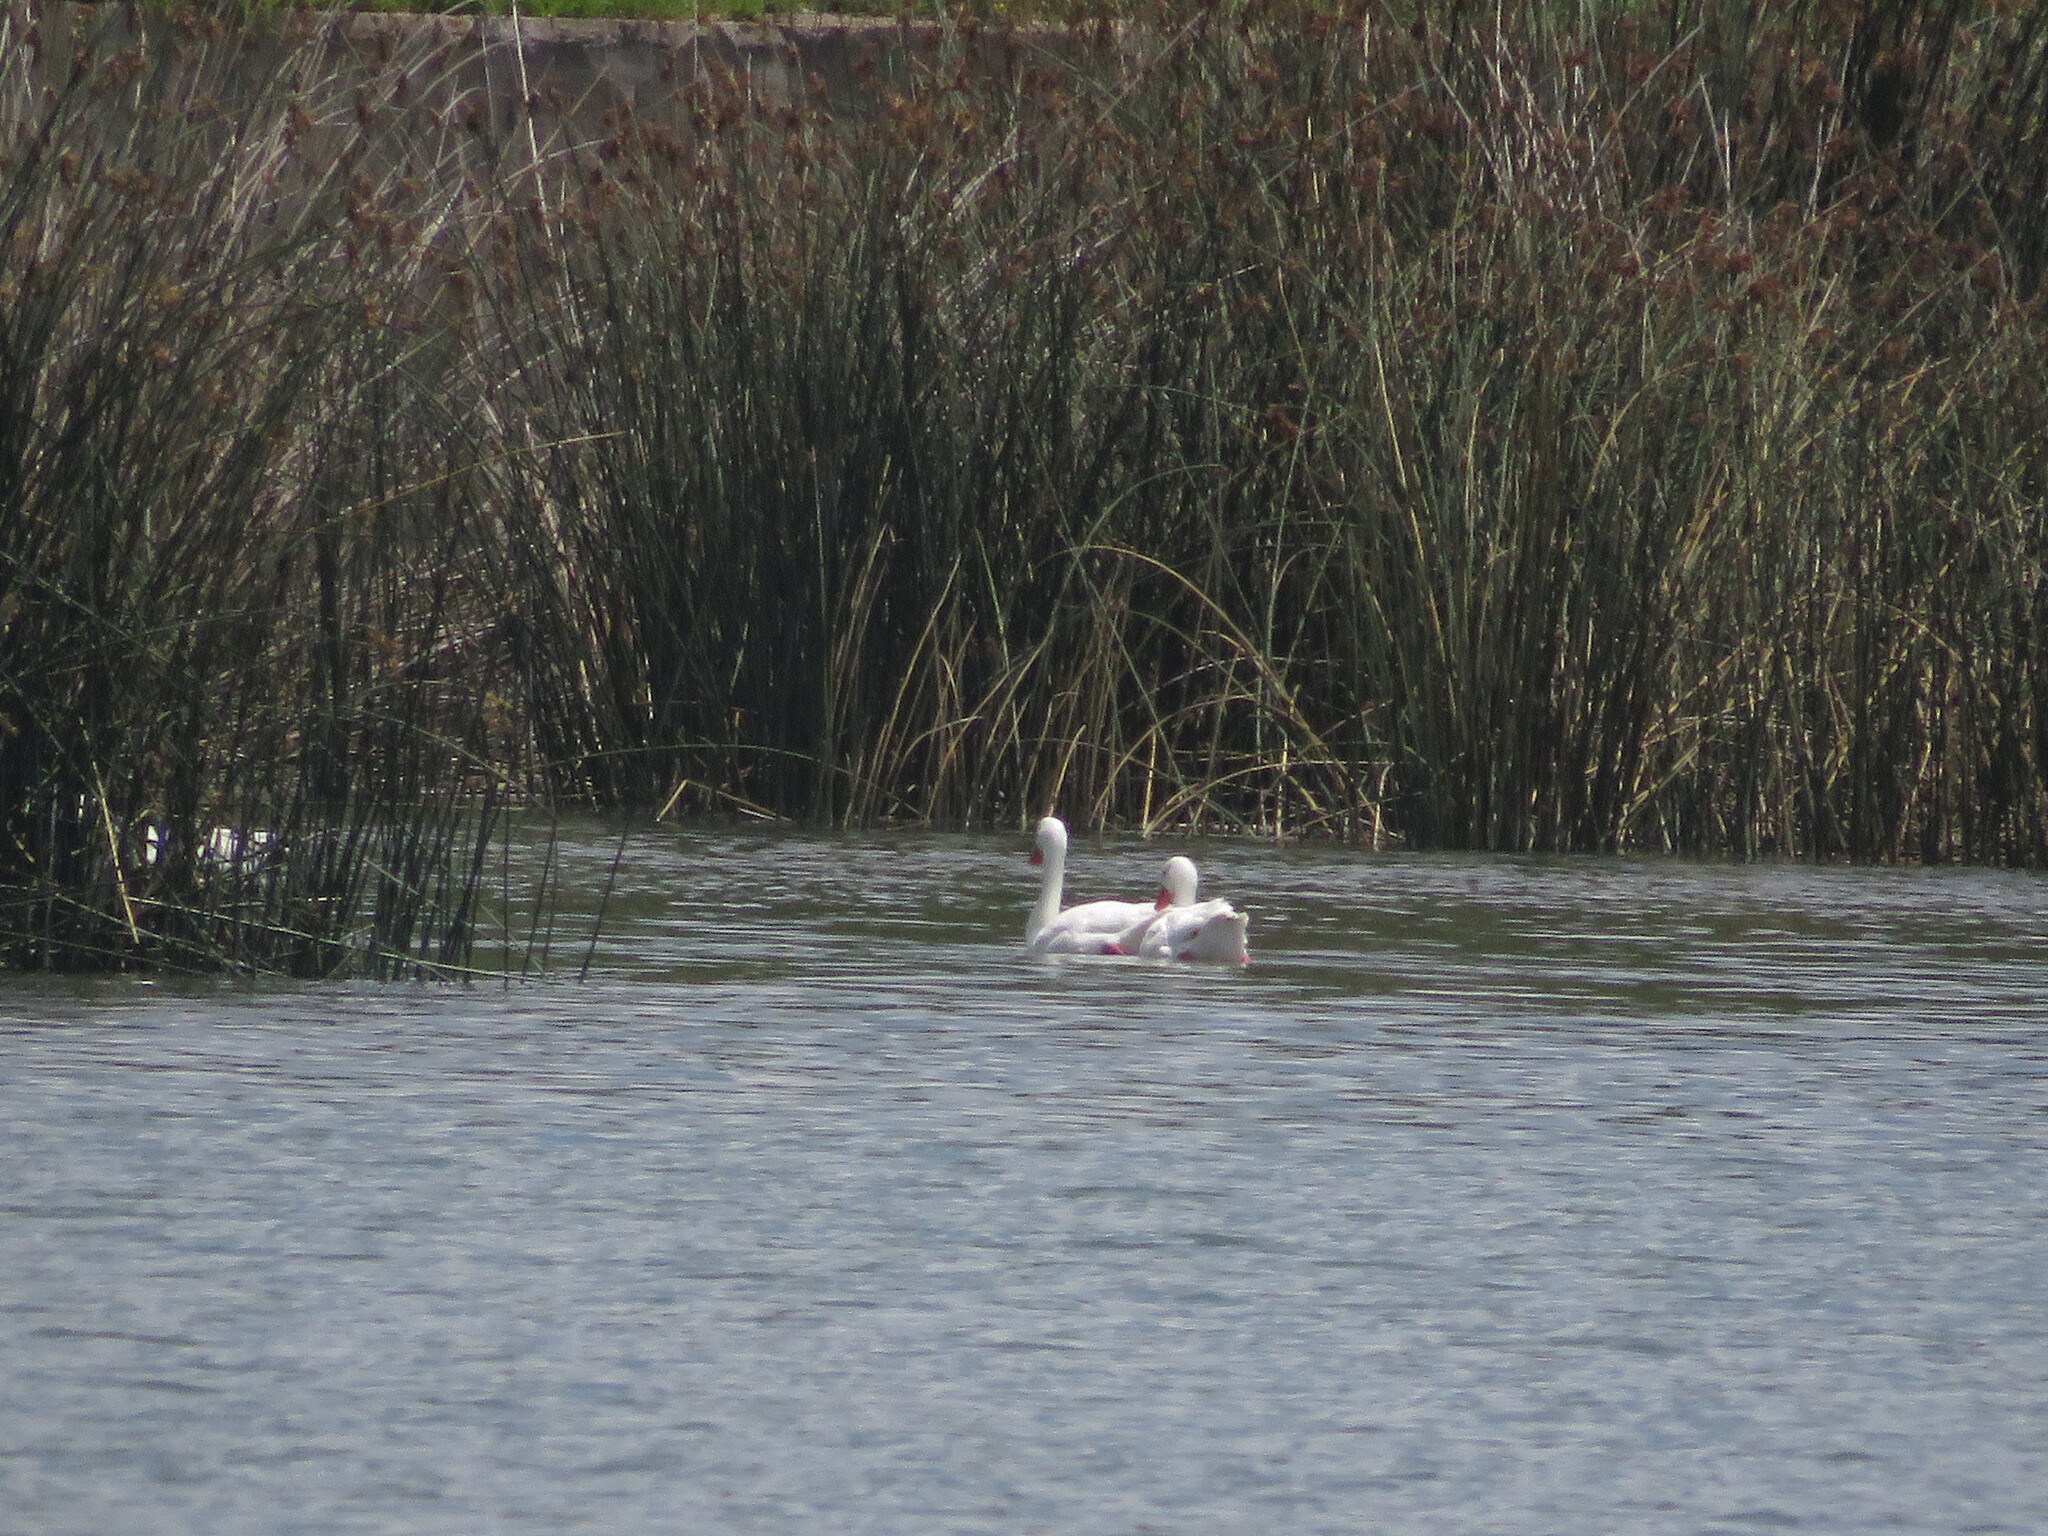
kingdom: Animalia
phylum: Chordata
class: Aves
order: Anseriformes
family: Anatidae
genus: Coscoroba
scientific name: Coscoroba coscoroba
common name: Coscoroba swan
